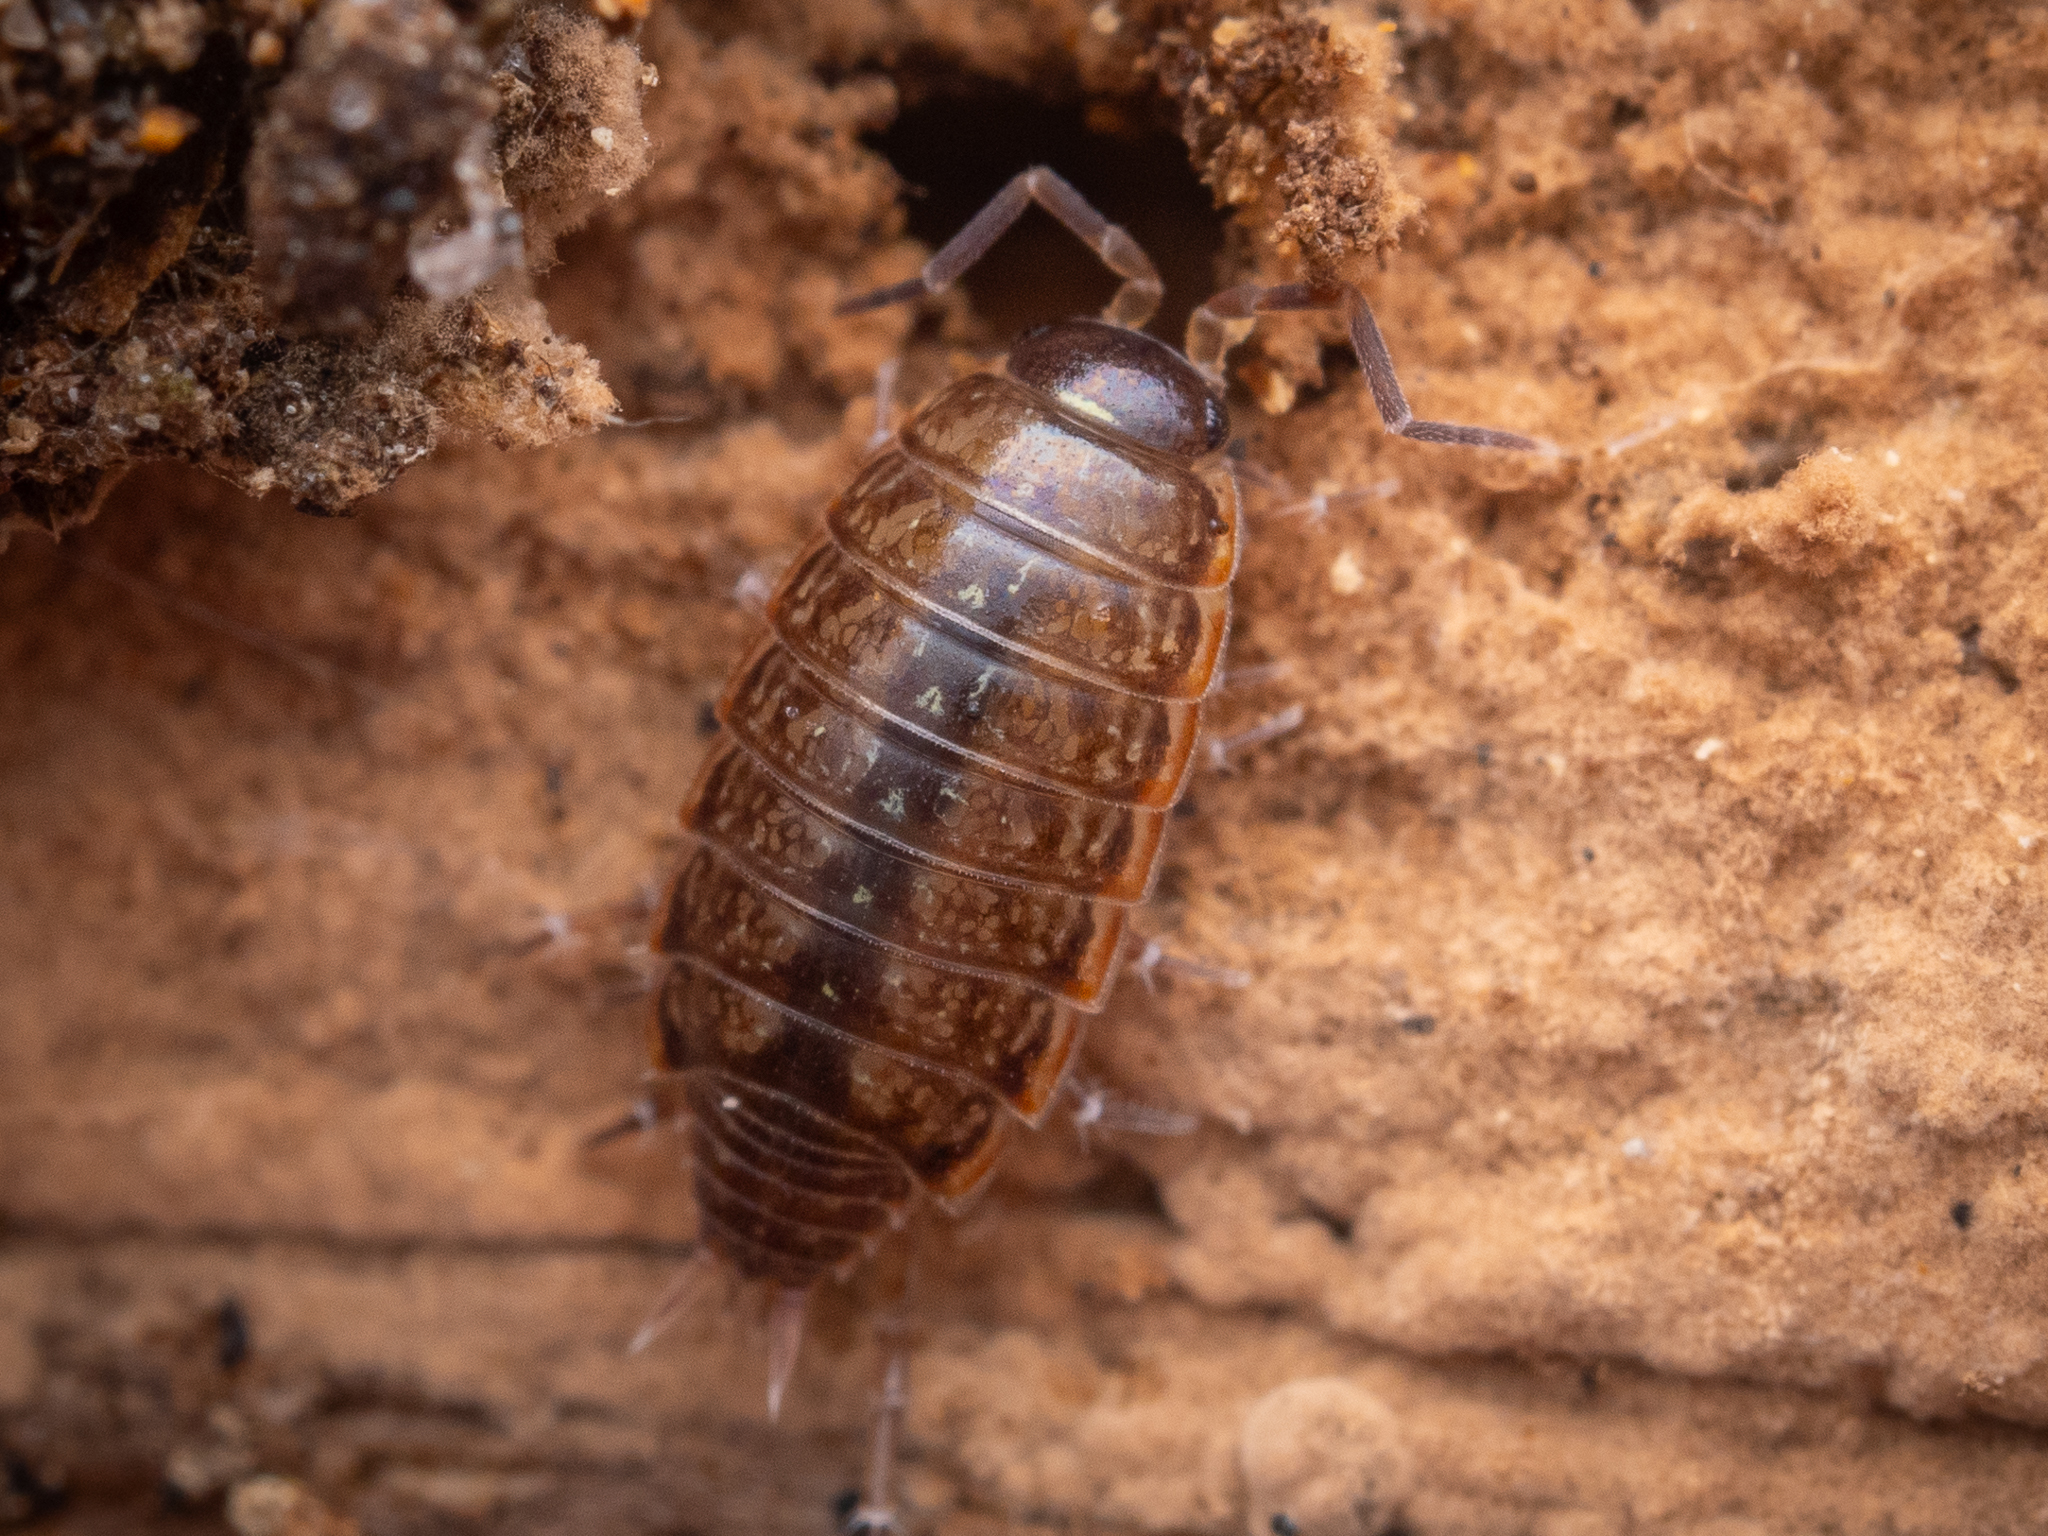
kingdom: Animalia
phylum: Arthropoda
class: Malacostraca
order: Isopoda
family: Philosciidae
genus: Philoscia
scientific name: Philoscia muscorum
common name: Common striped woodlouse
